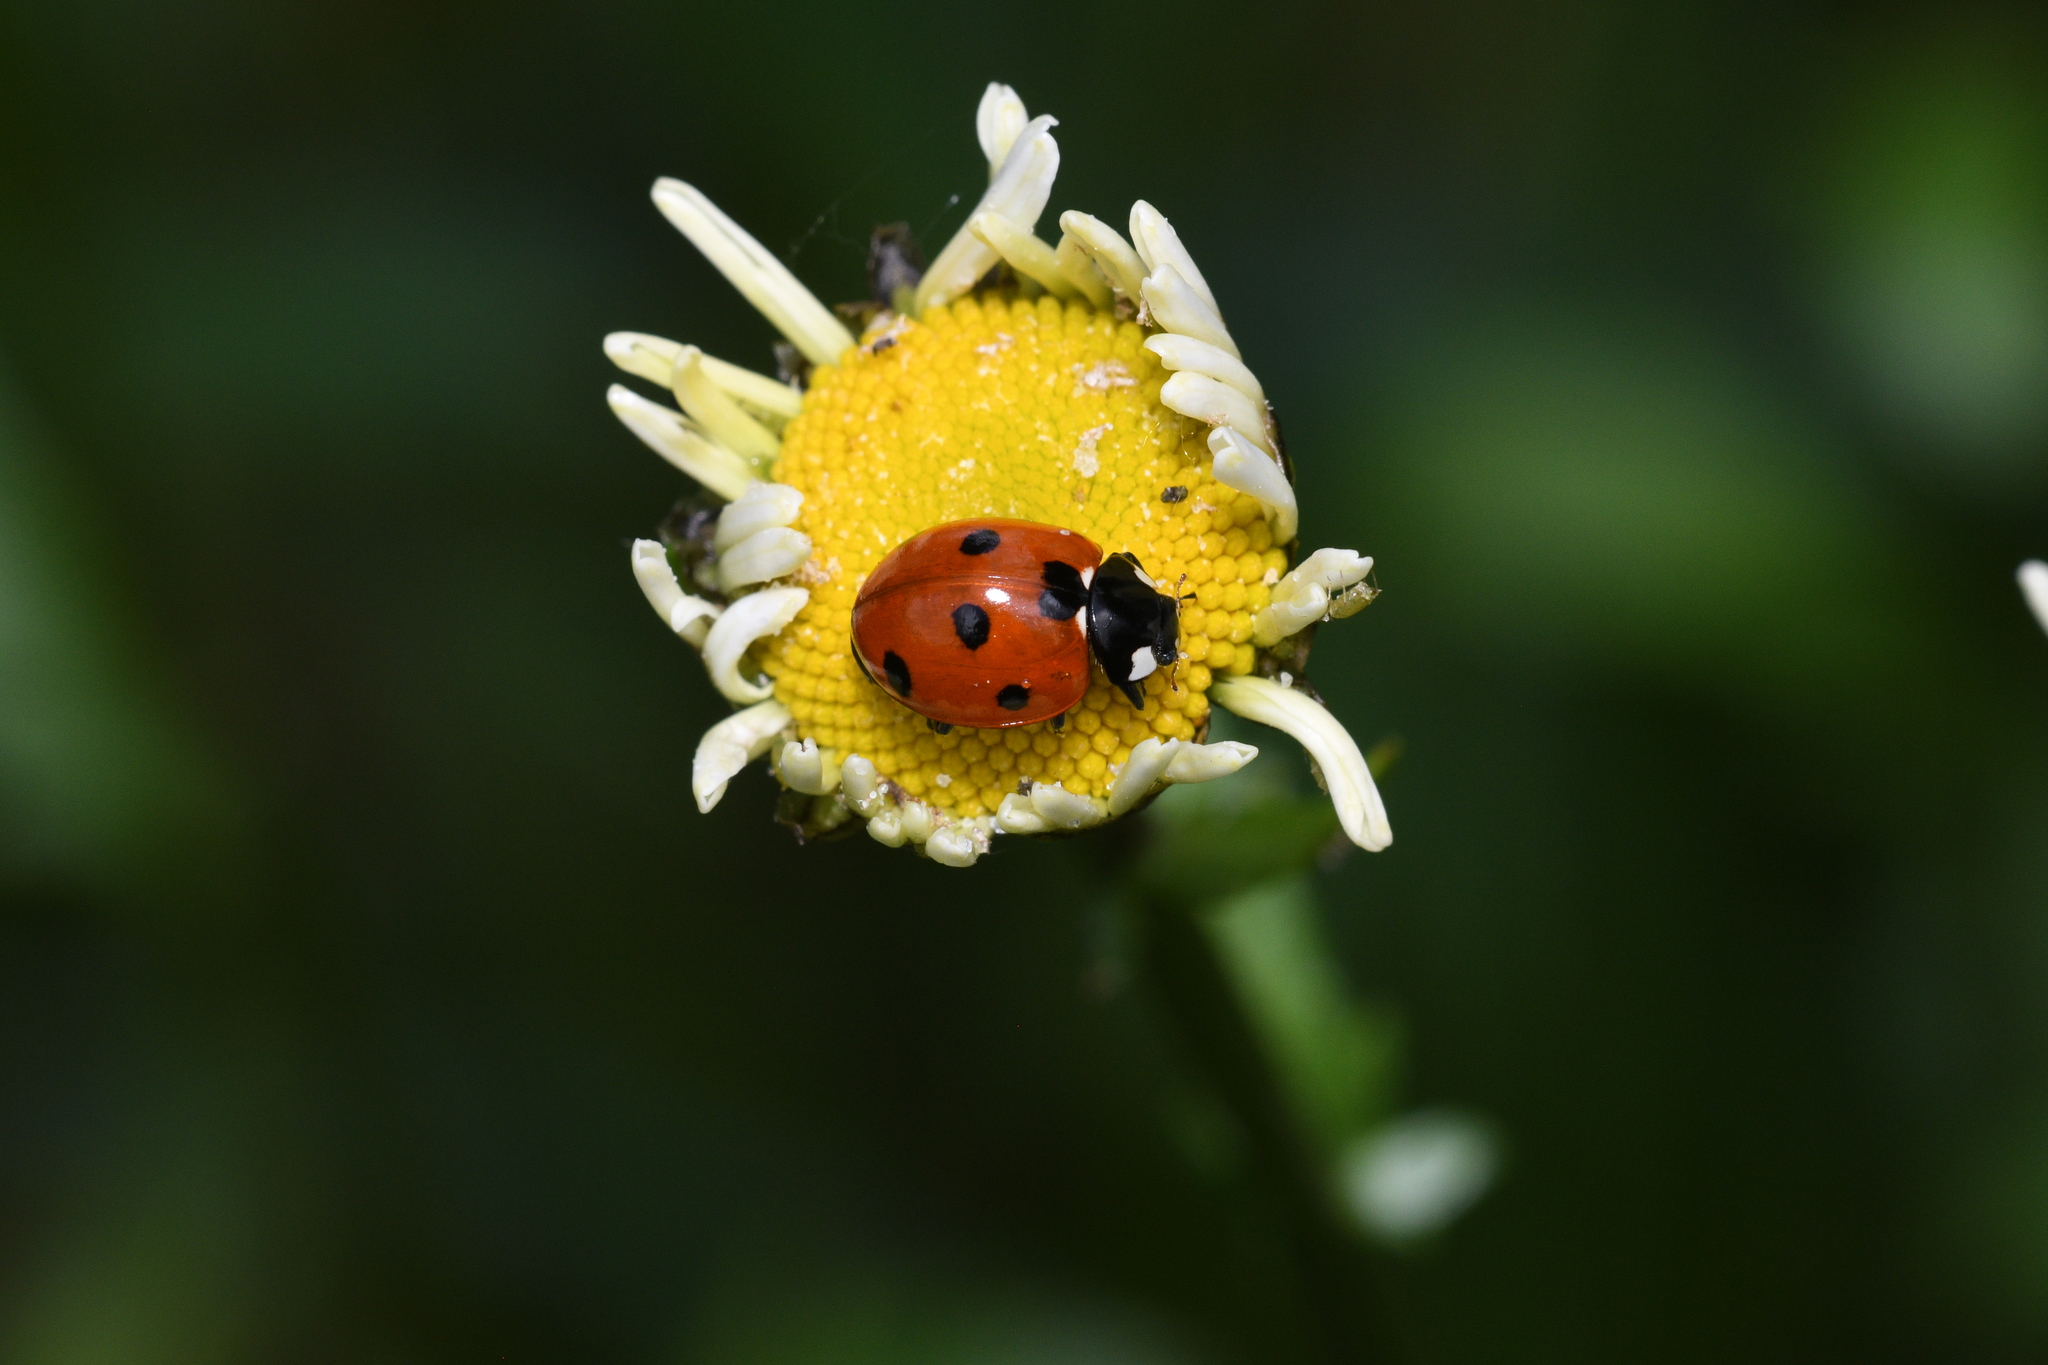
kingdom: Animalia
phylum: Arthropoda
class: Insecta
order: Coleoptera
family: Coccinellidae
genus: Coccinella
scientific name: Coccinella septempunctata
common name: Sevenspotted lady beetle
